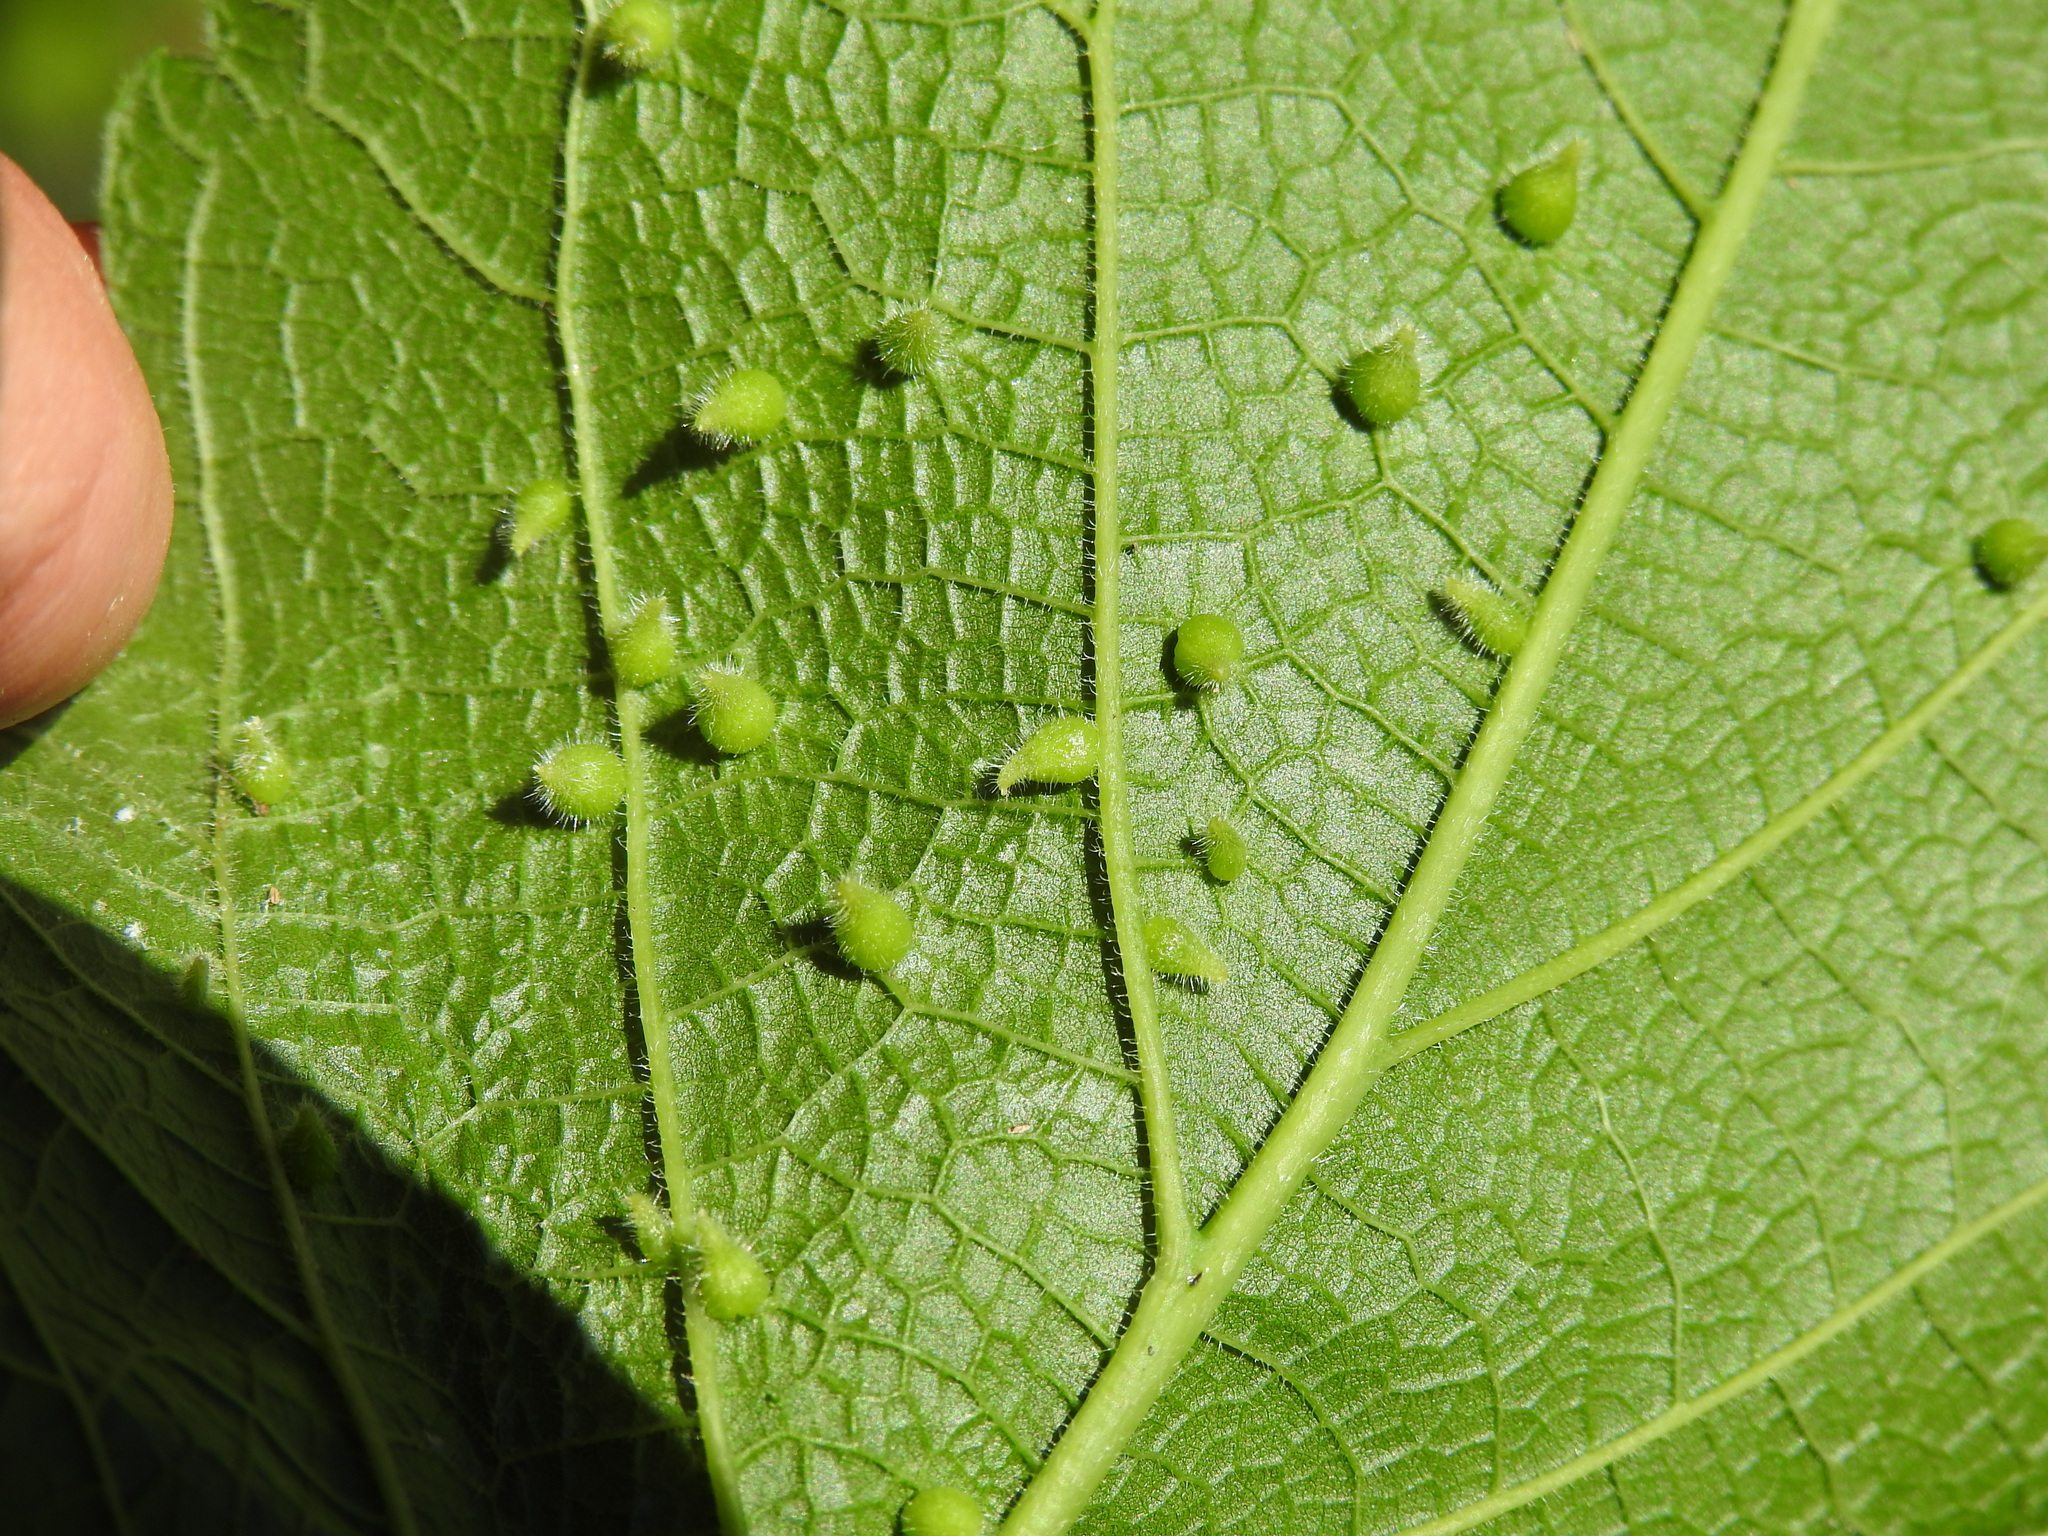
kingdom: Animalia
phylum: Arthropoda
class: Insecta
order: Diptera
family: Cecidomyiidae
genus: Celticecis
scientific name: Celticecis acuminata
